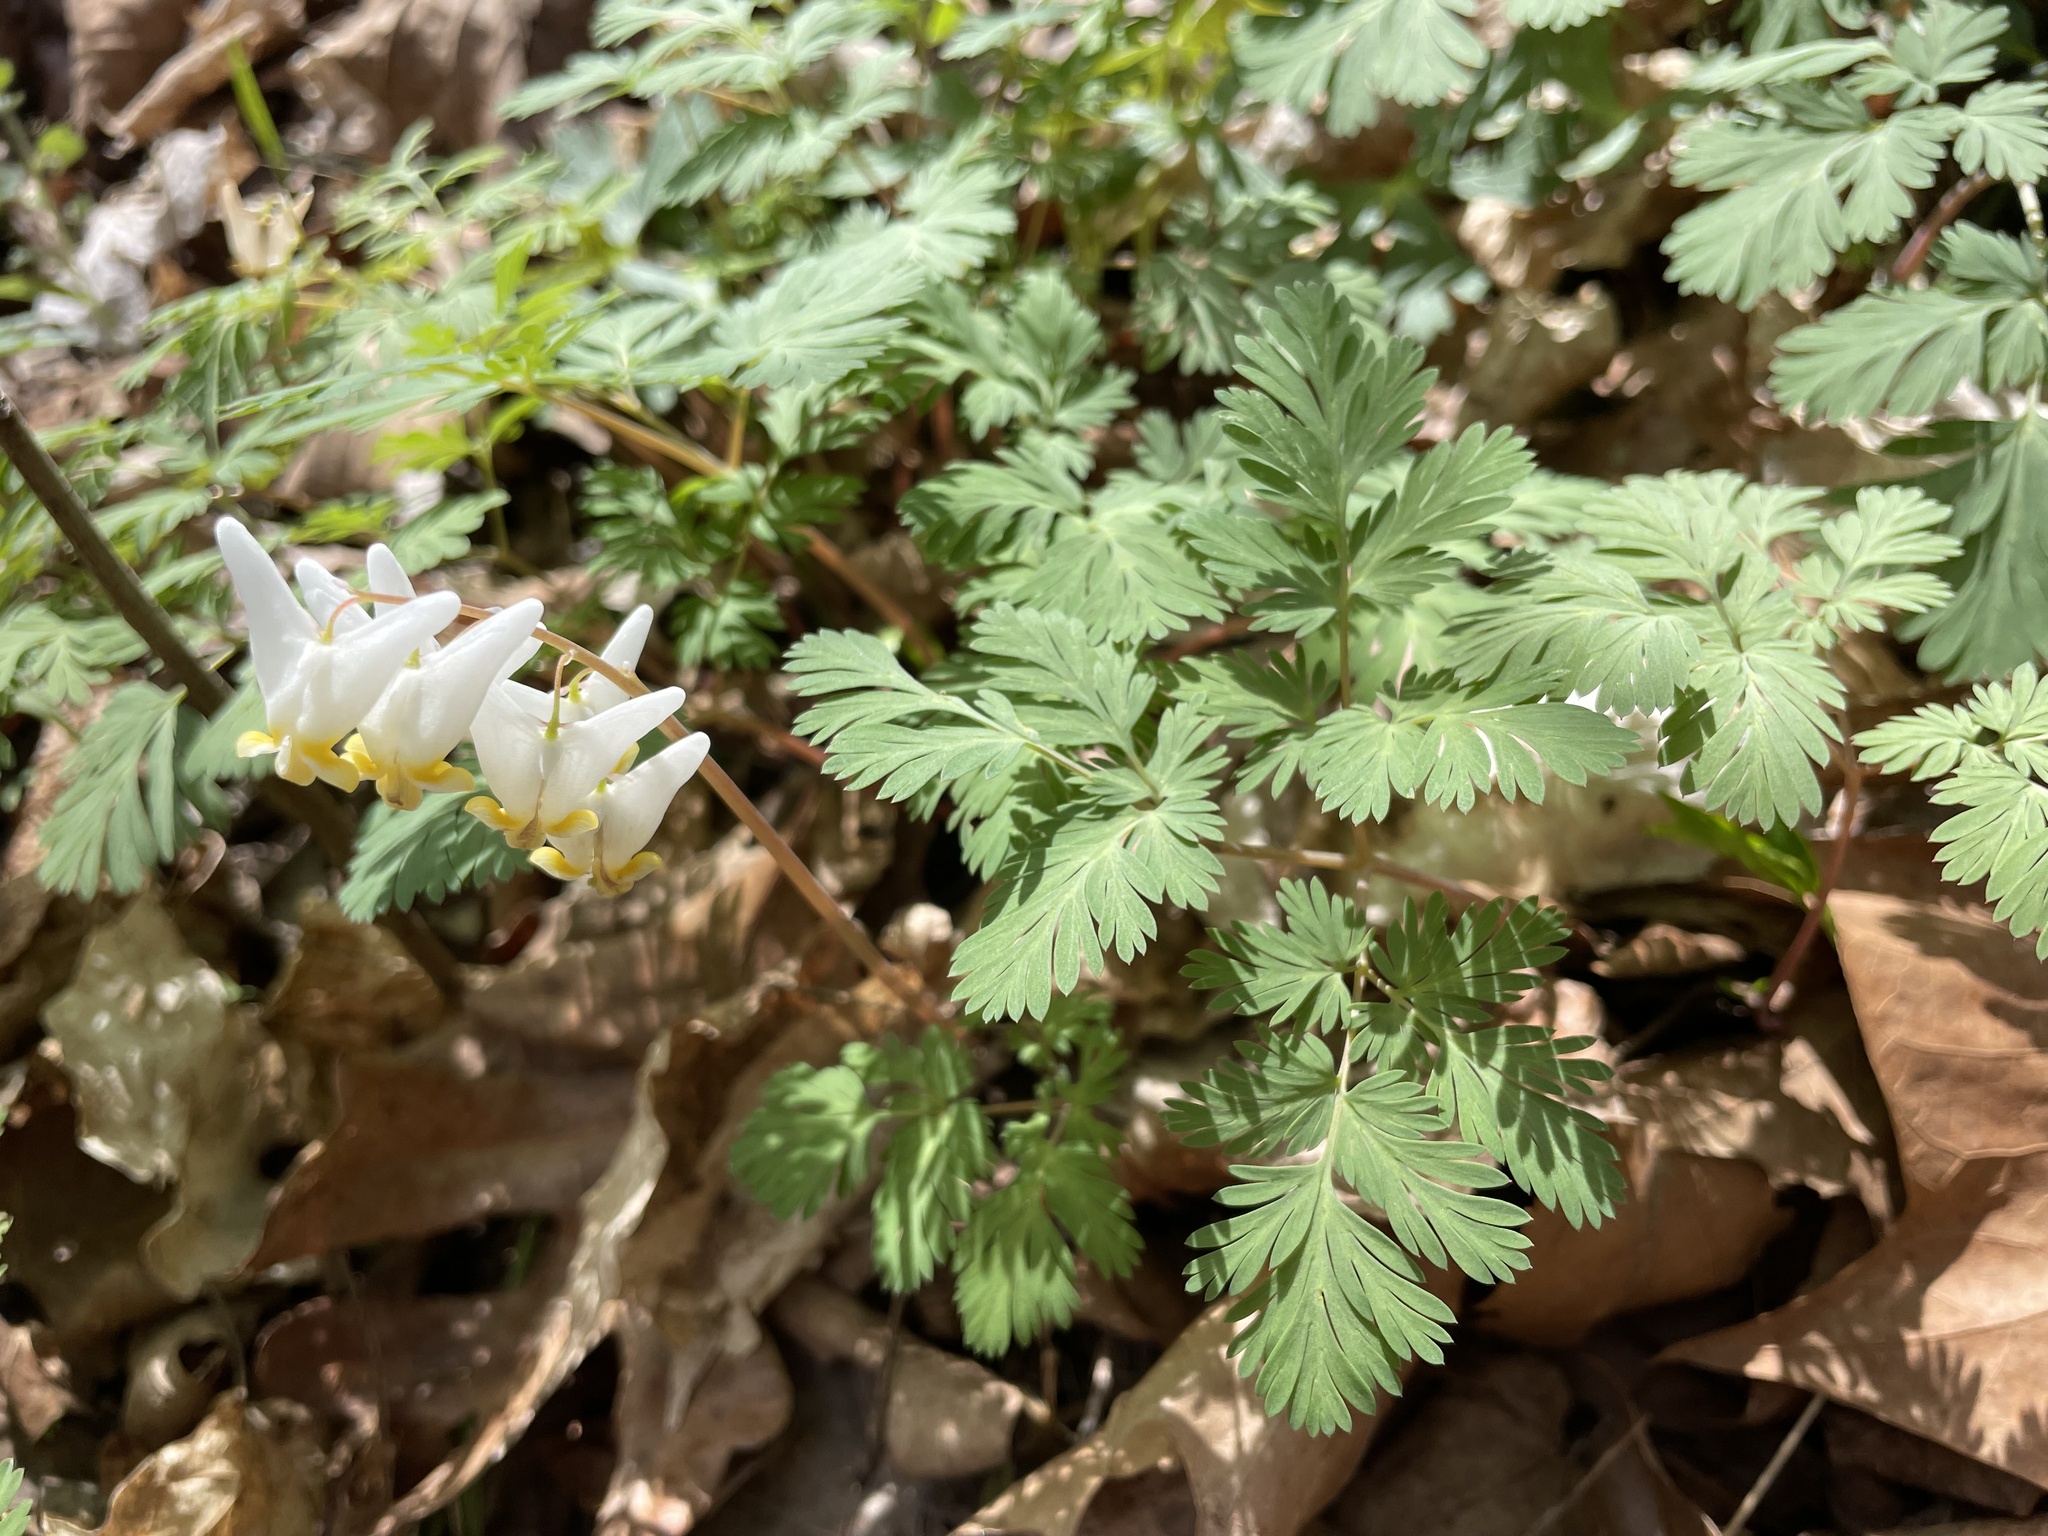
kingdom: Plantae
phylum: Tracheophyta
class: Magnoliopsida
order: Ranunculales
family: Papaveraceae
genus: Dicentra
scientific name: Dicentra cucullaria
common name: Dutchman's breeches
